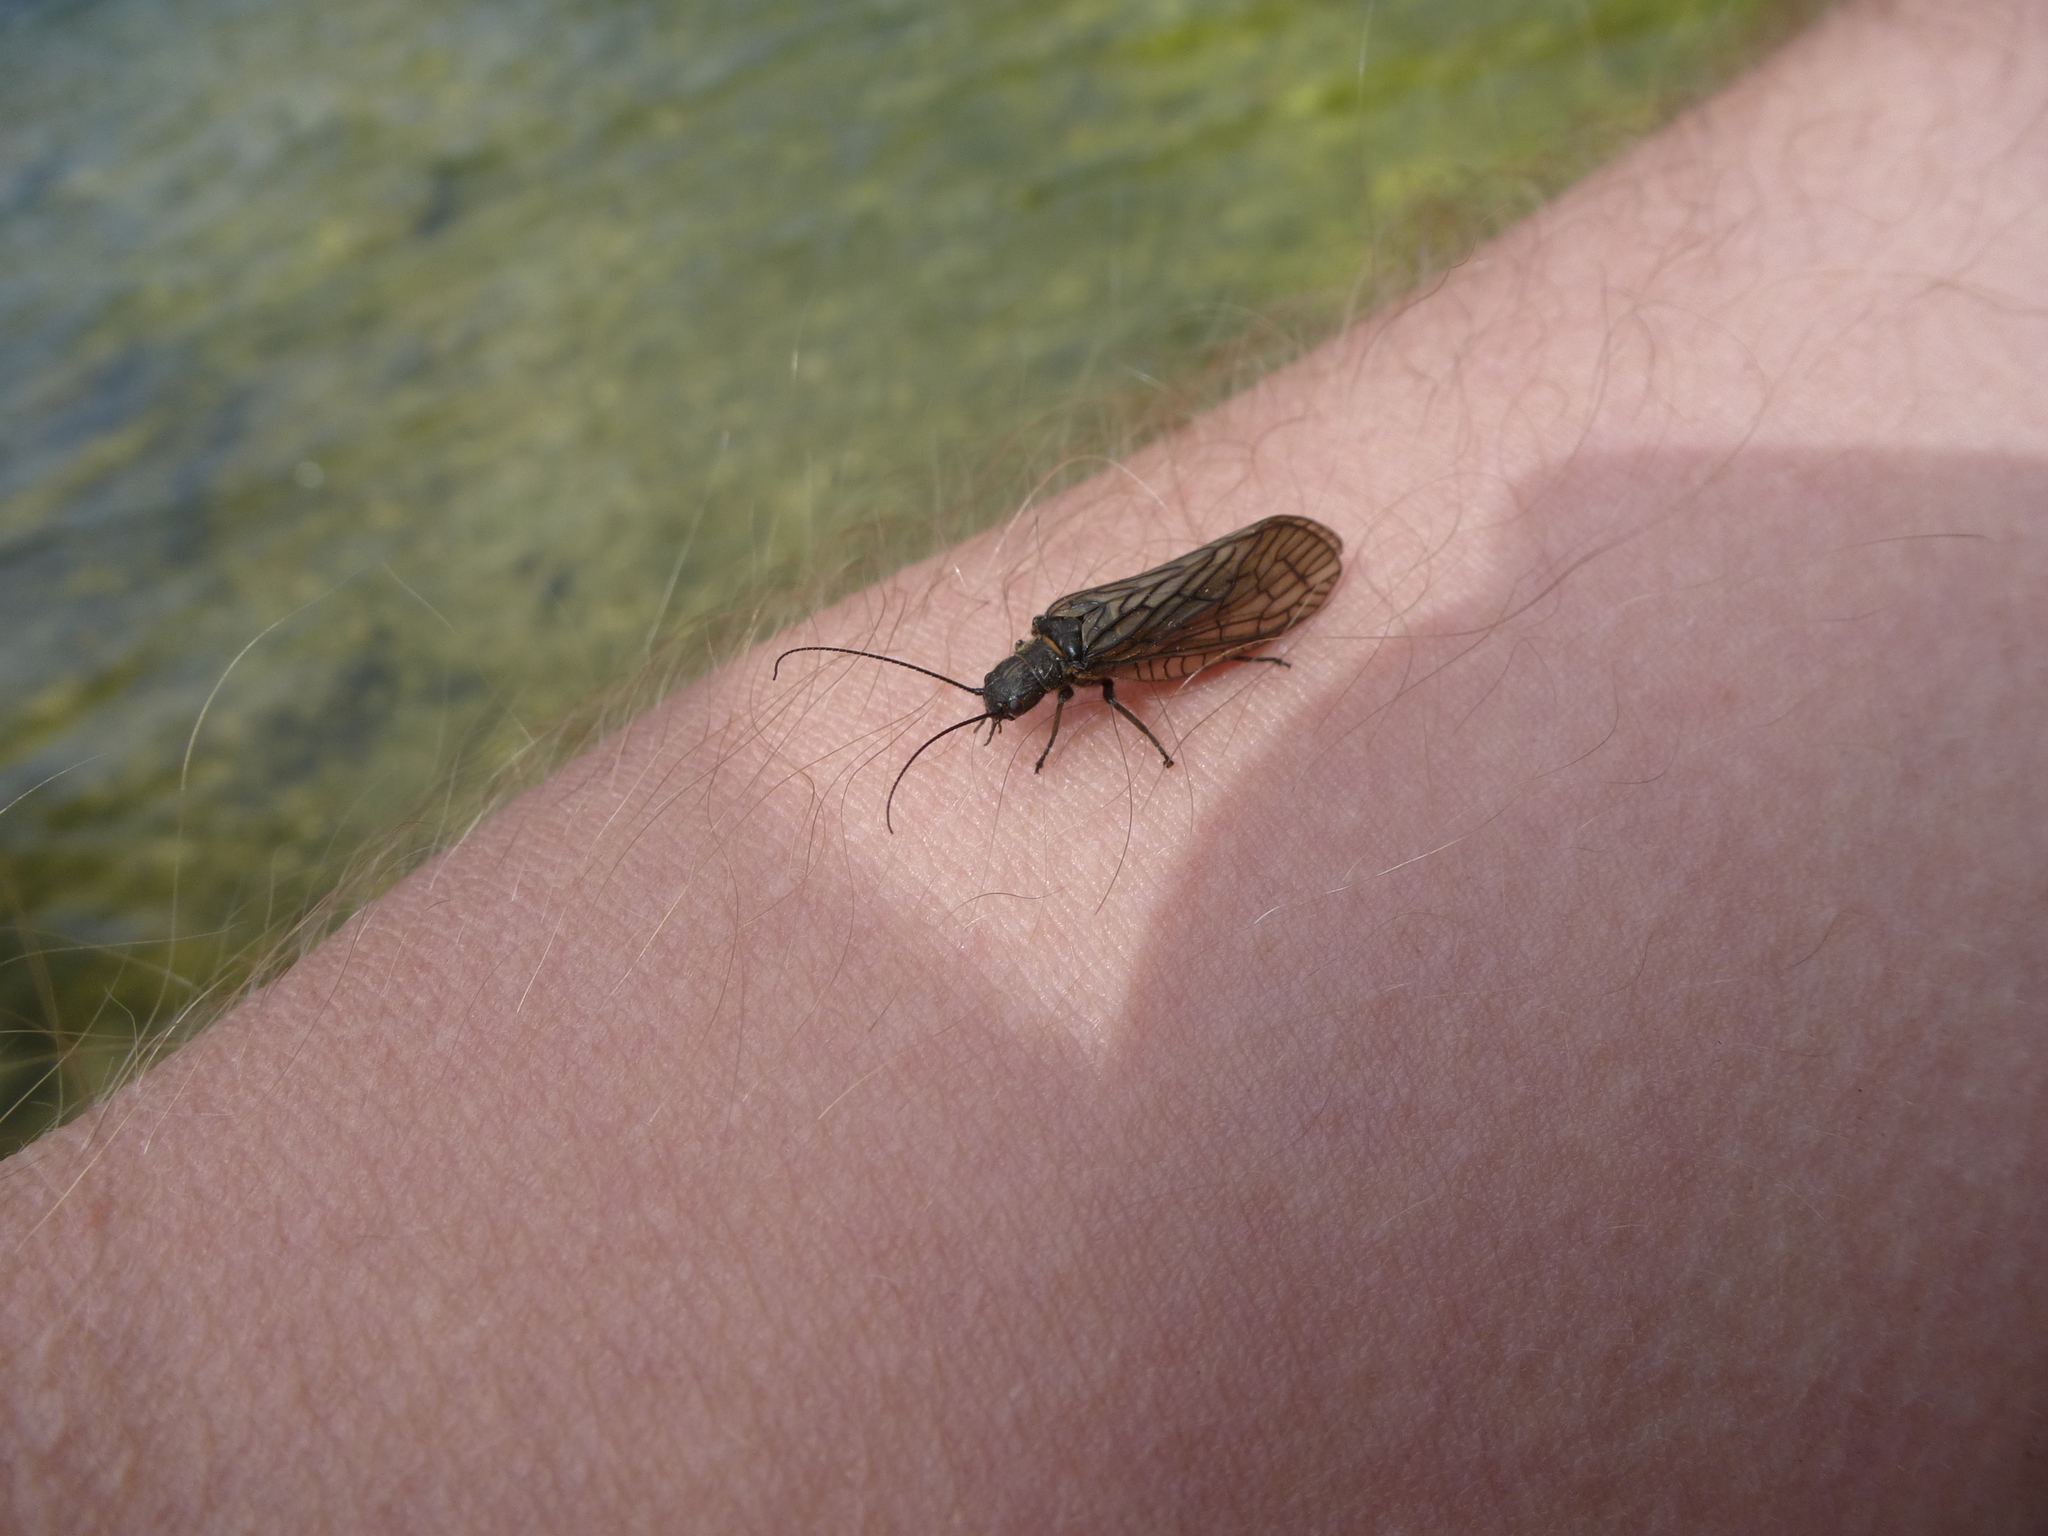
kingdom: Animalia
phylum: Arthropoda
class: Insecta
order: Megaloptera
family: Sialidae
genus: Sialis
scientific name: Sialis
